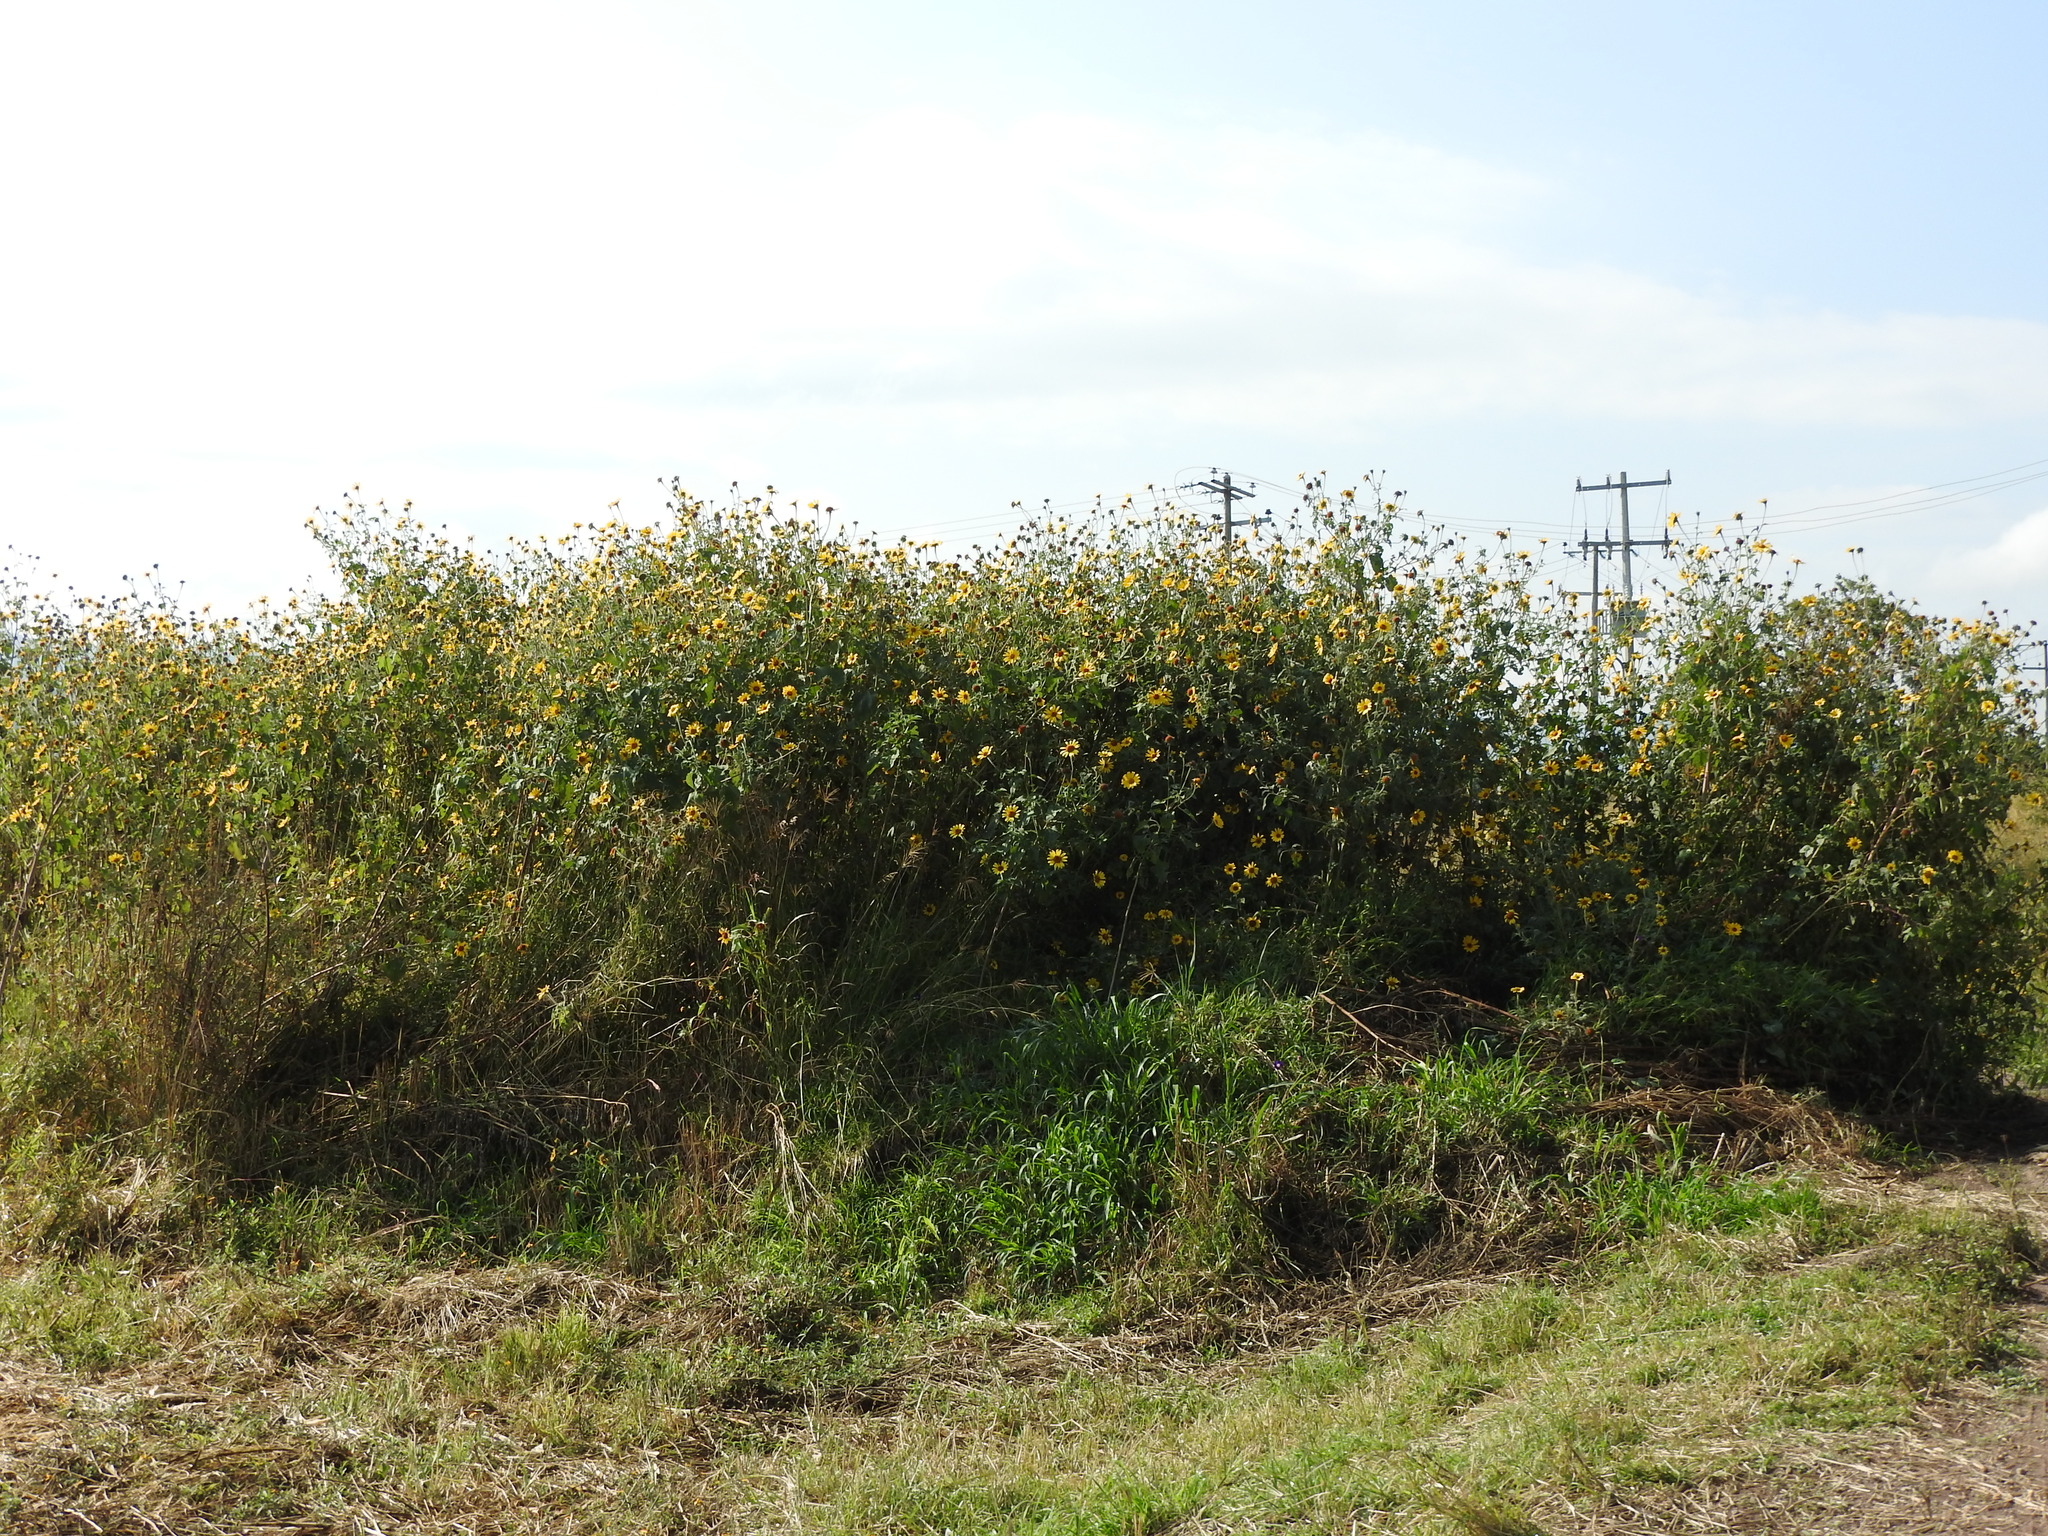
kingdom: Plantae
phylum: Tracheophyta
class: Magnoliopsida
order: Asterales
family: Asteraceae
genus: Tithonia
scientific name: Tithonia tubaeformis
